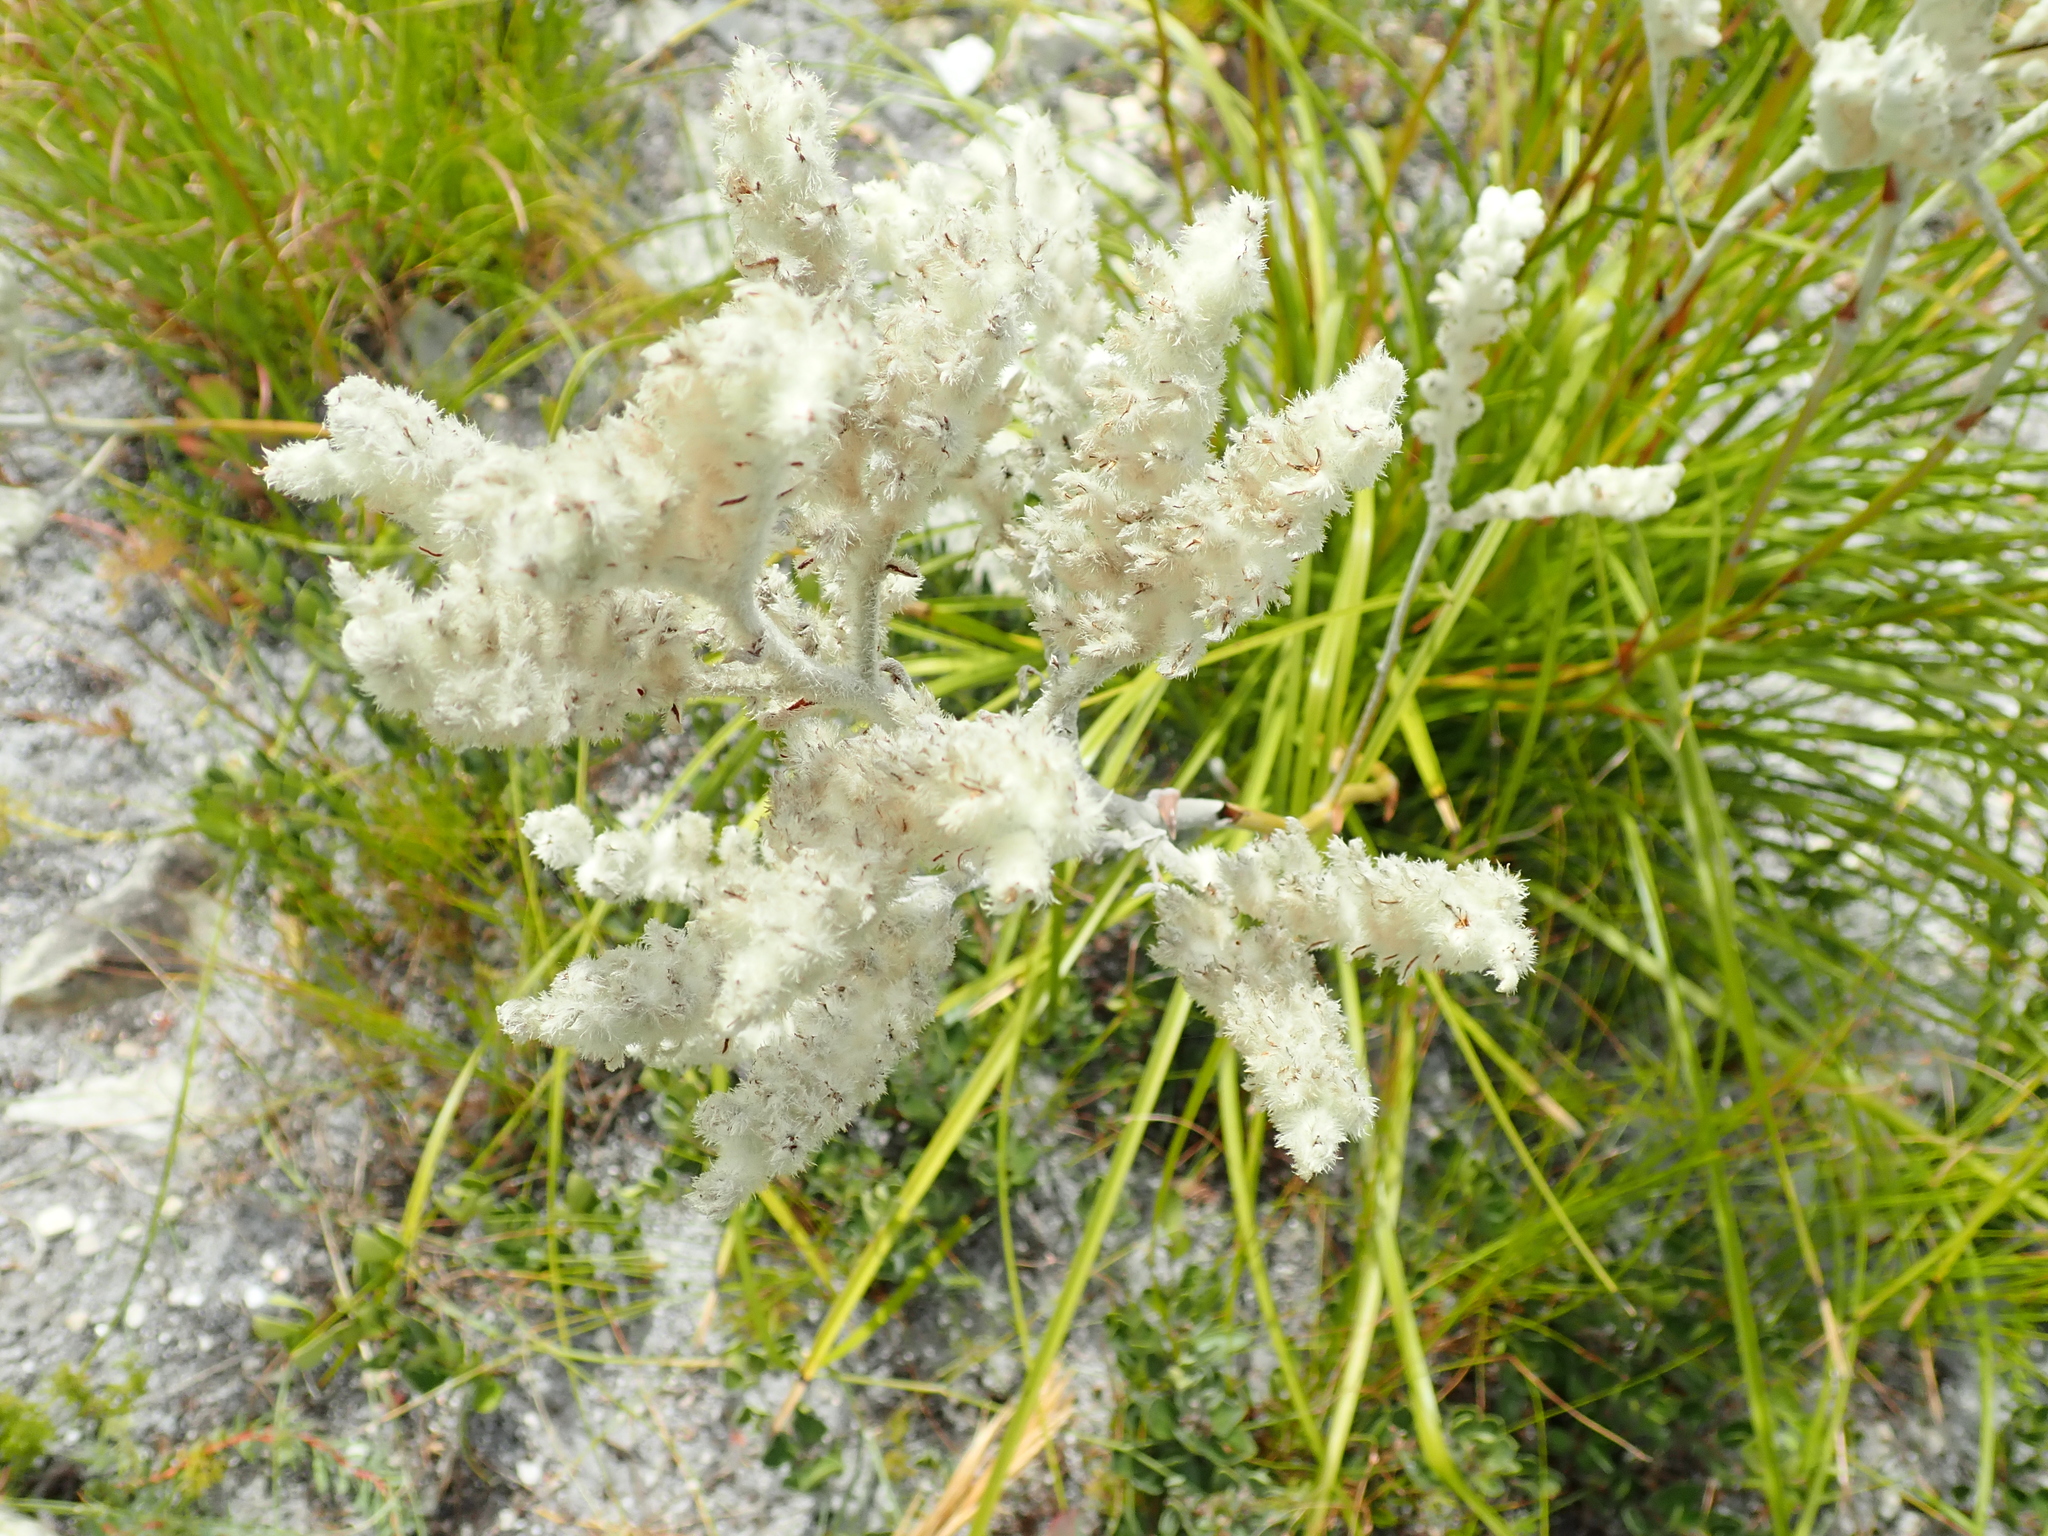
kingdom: Plantae
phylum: Tracheophyta
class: Liliopsida
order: Asparagales
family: Lanariaceae
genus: Lanaria
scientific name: Lanaria lanata
